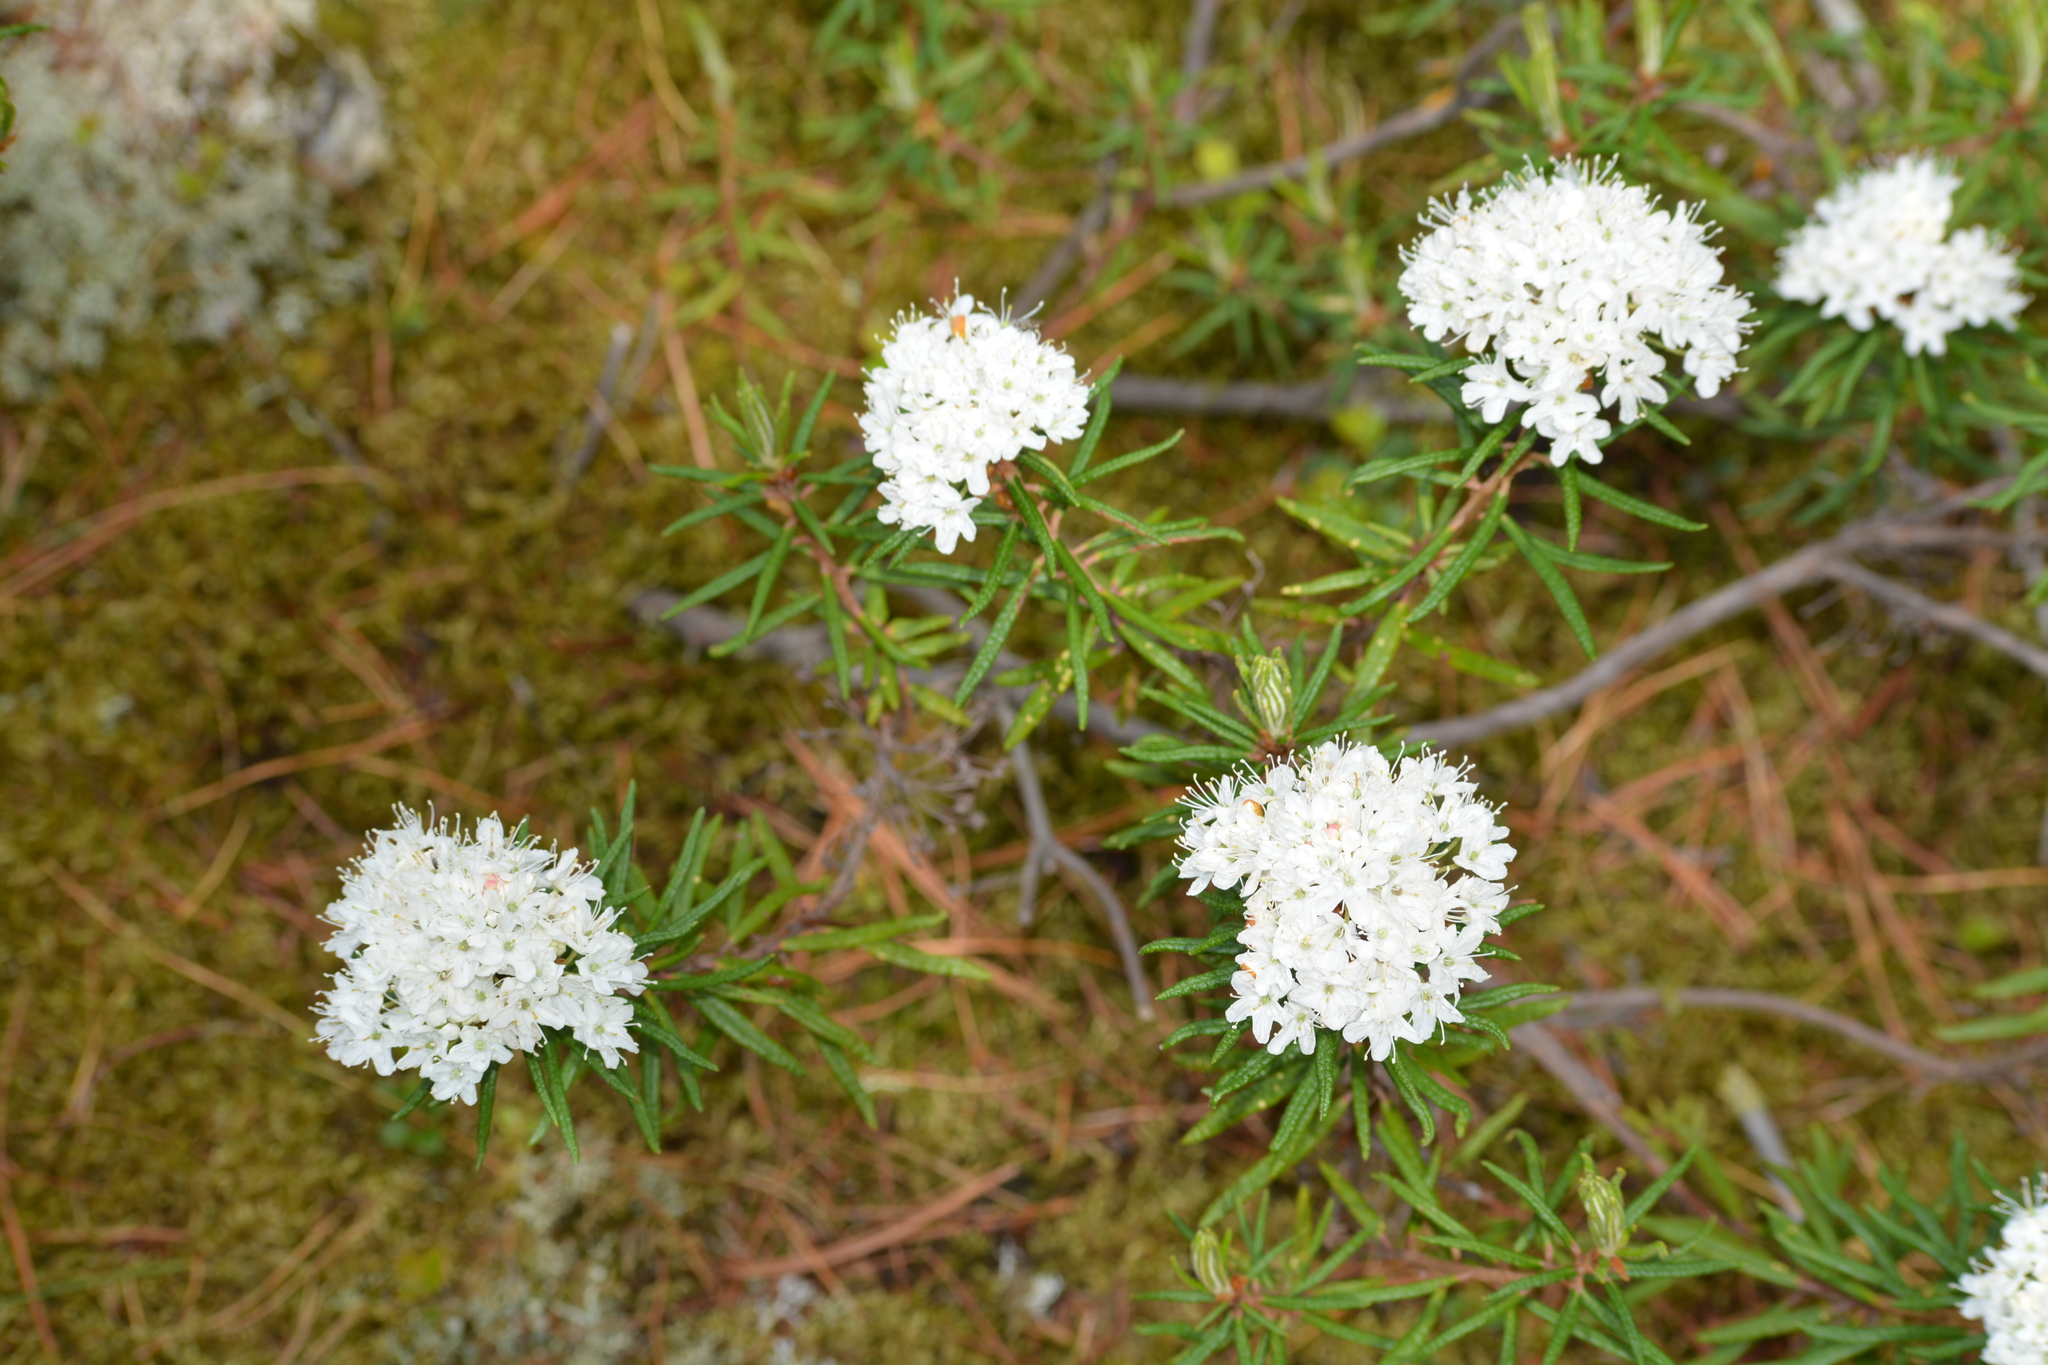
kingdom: Plantae
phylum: Tracheophyta
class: Magnoliopsida
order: Ericales
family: Ericaceae
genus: Rhododendron
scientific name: Rhododendron tomentosum
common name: Marsh labrador tea
